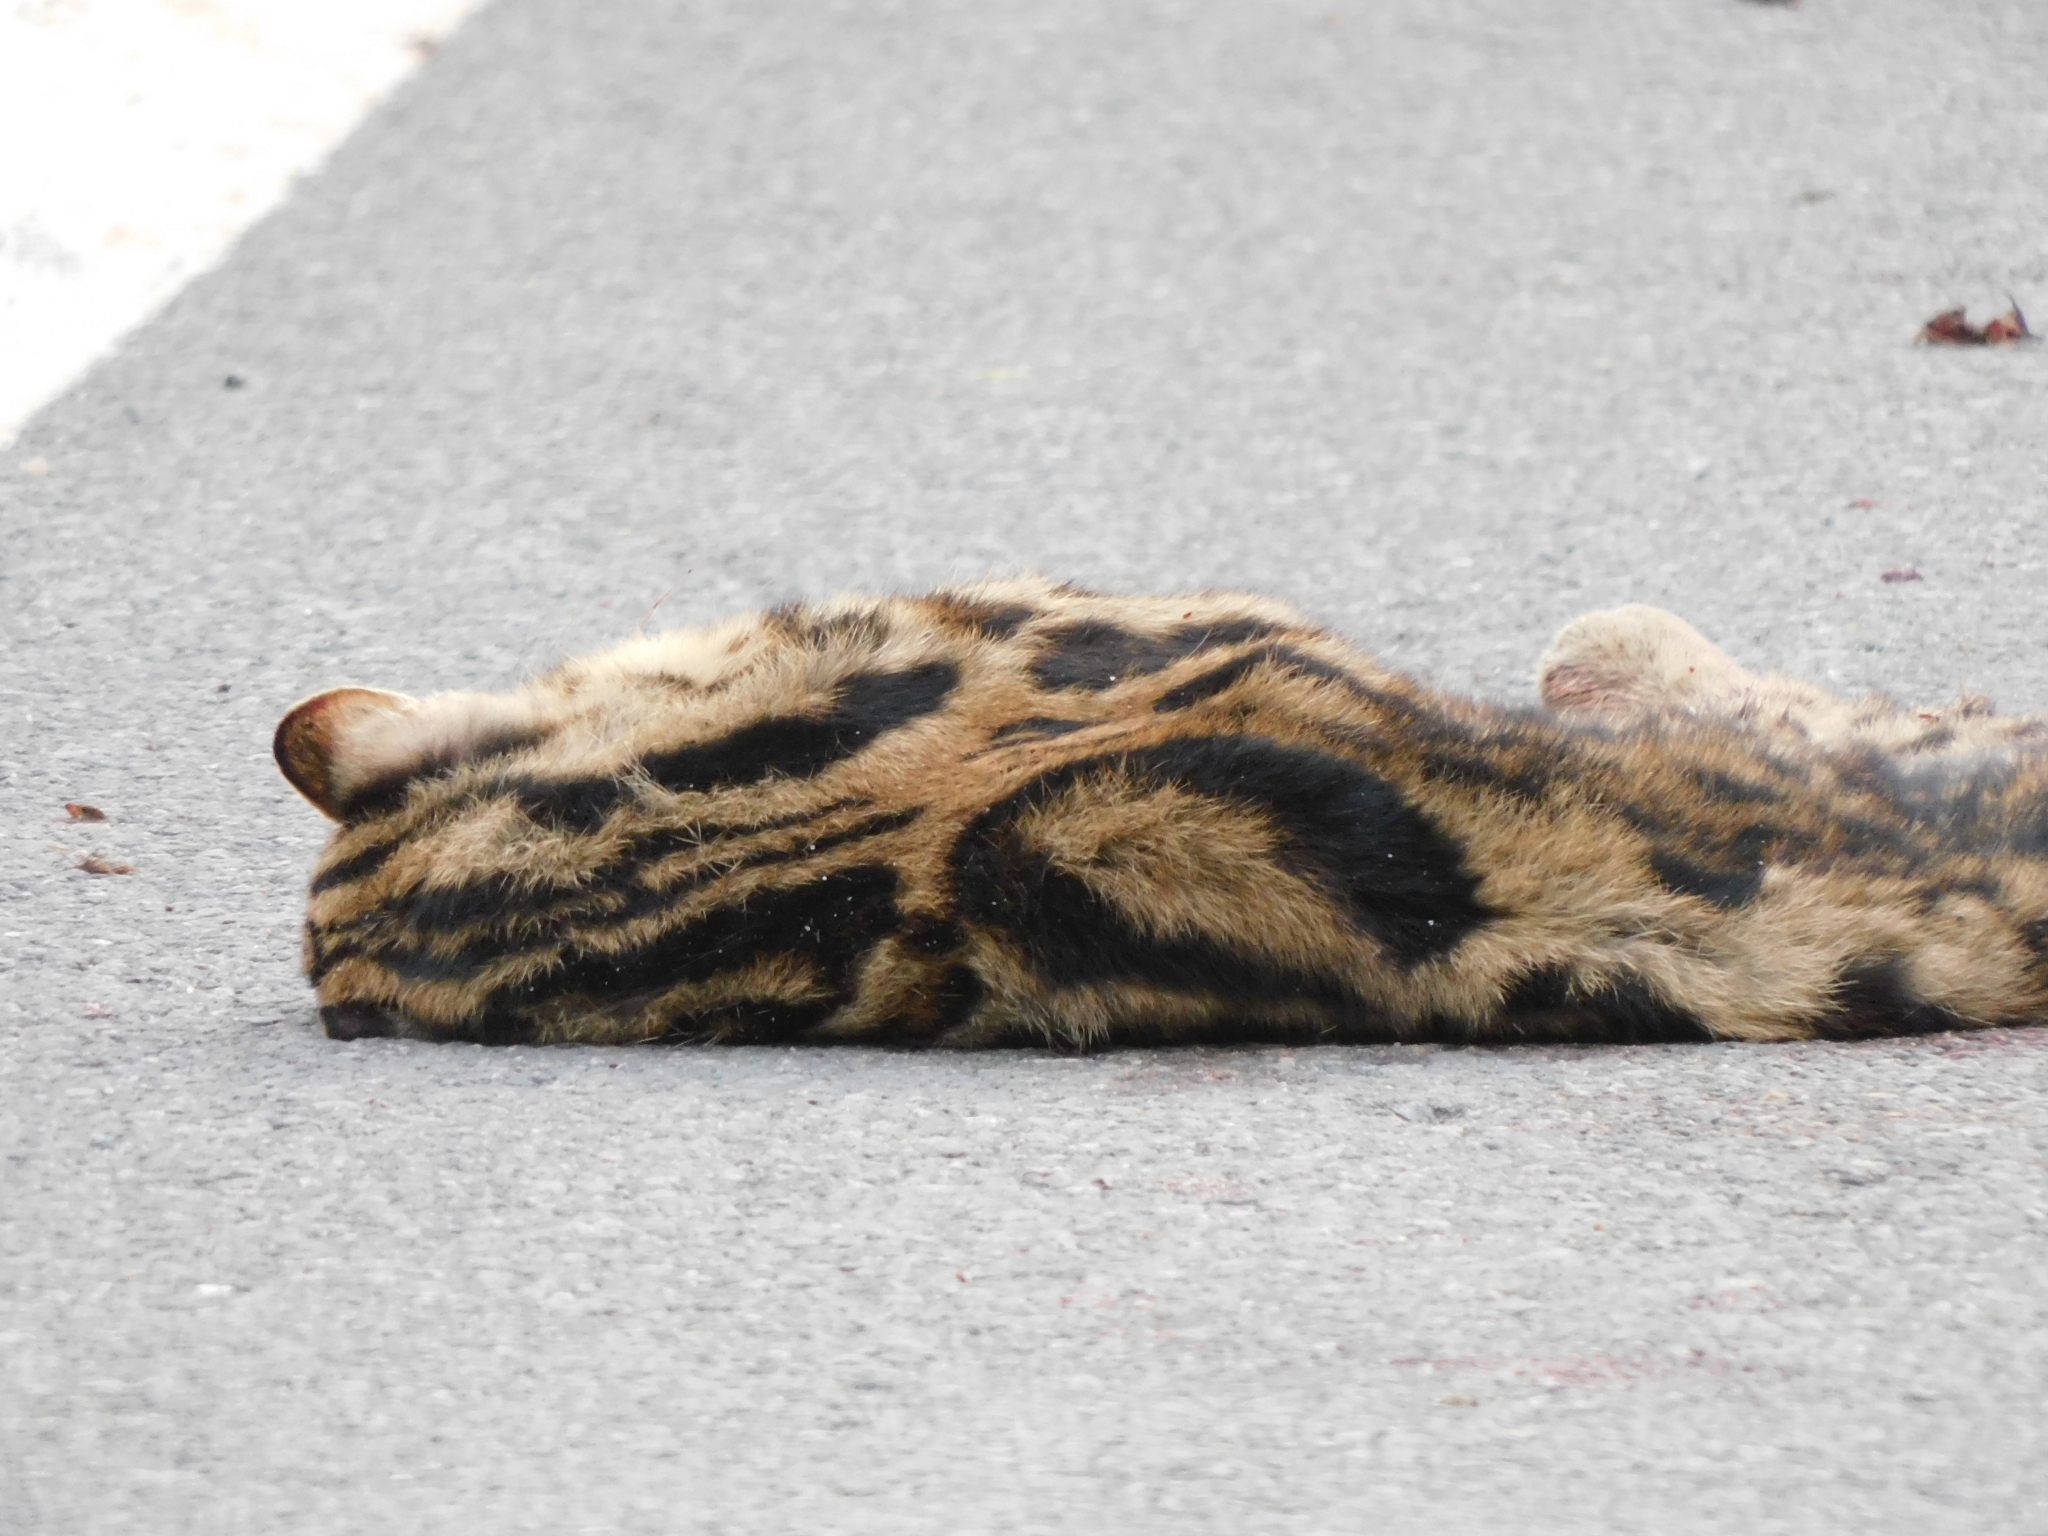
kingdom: Animalia
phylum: Chordata
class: Mammalia
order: Carnivora
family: Felidae
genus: Prionailurus
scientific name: Prionailurus bengalensis
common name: Leopard cat
